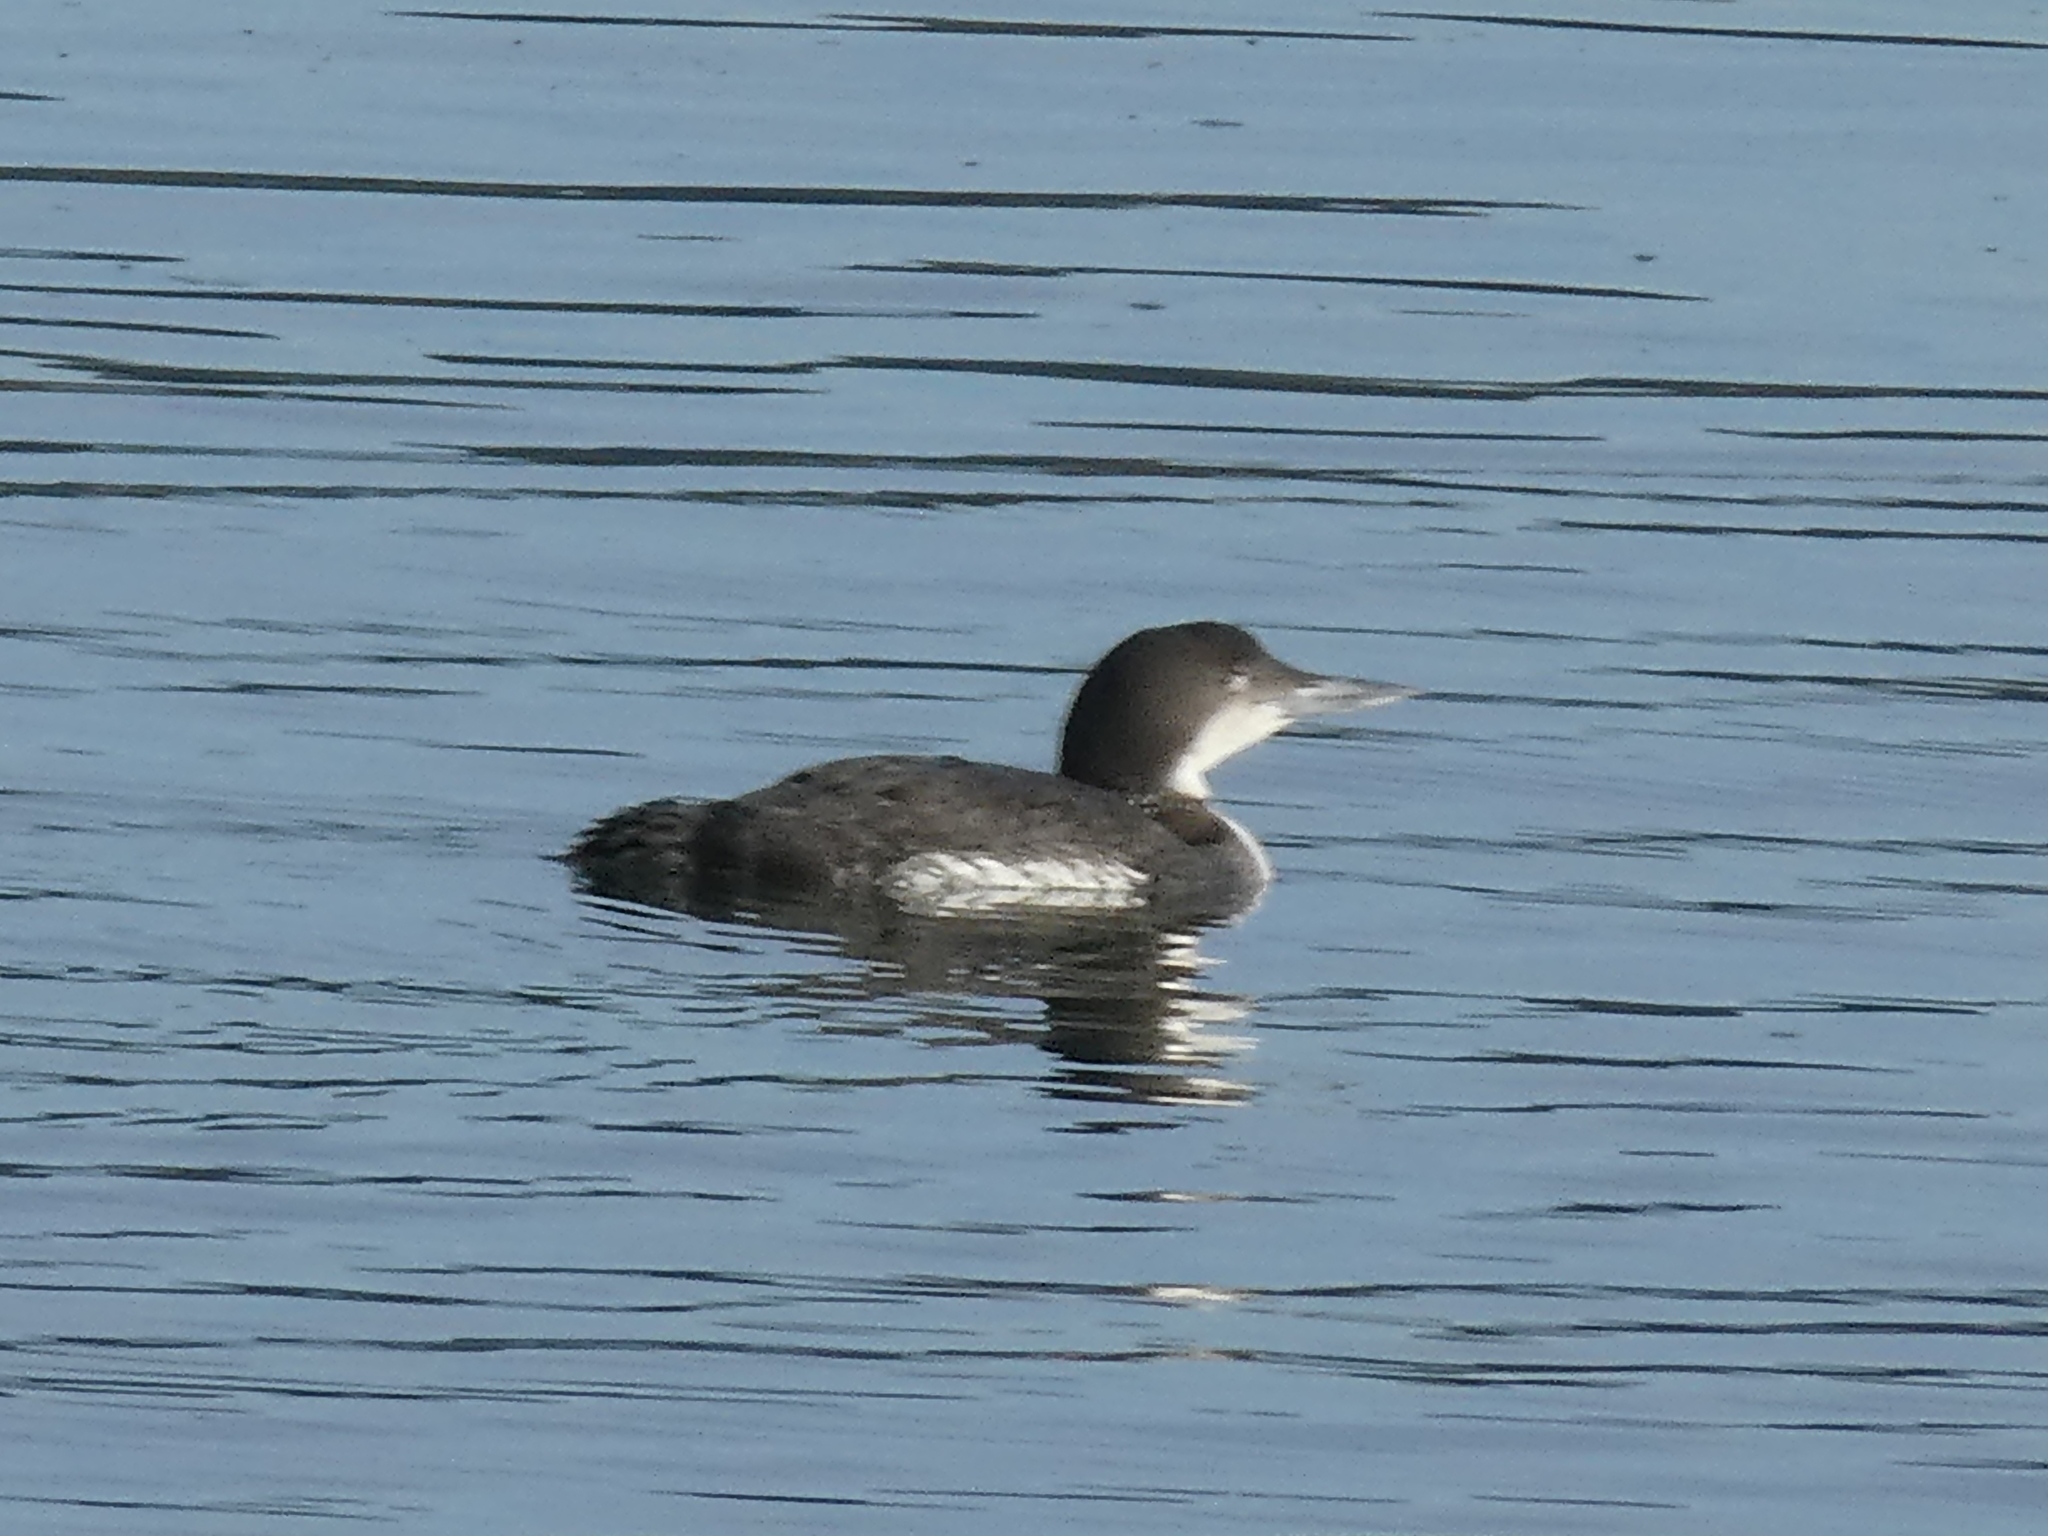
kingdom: Animalia
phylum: Chordata
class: Aves
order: Gaviiformes
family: Gaviidae
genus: Gavia
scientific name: Gavia immer
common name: Common loon
